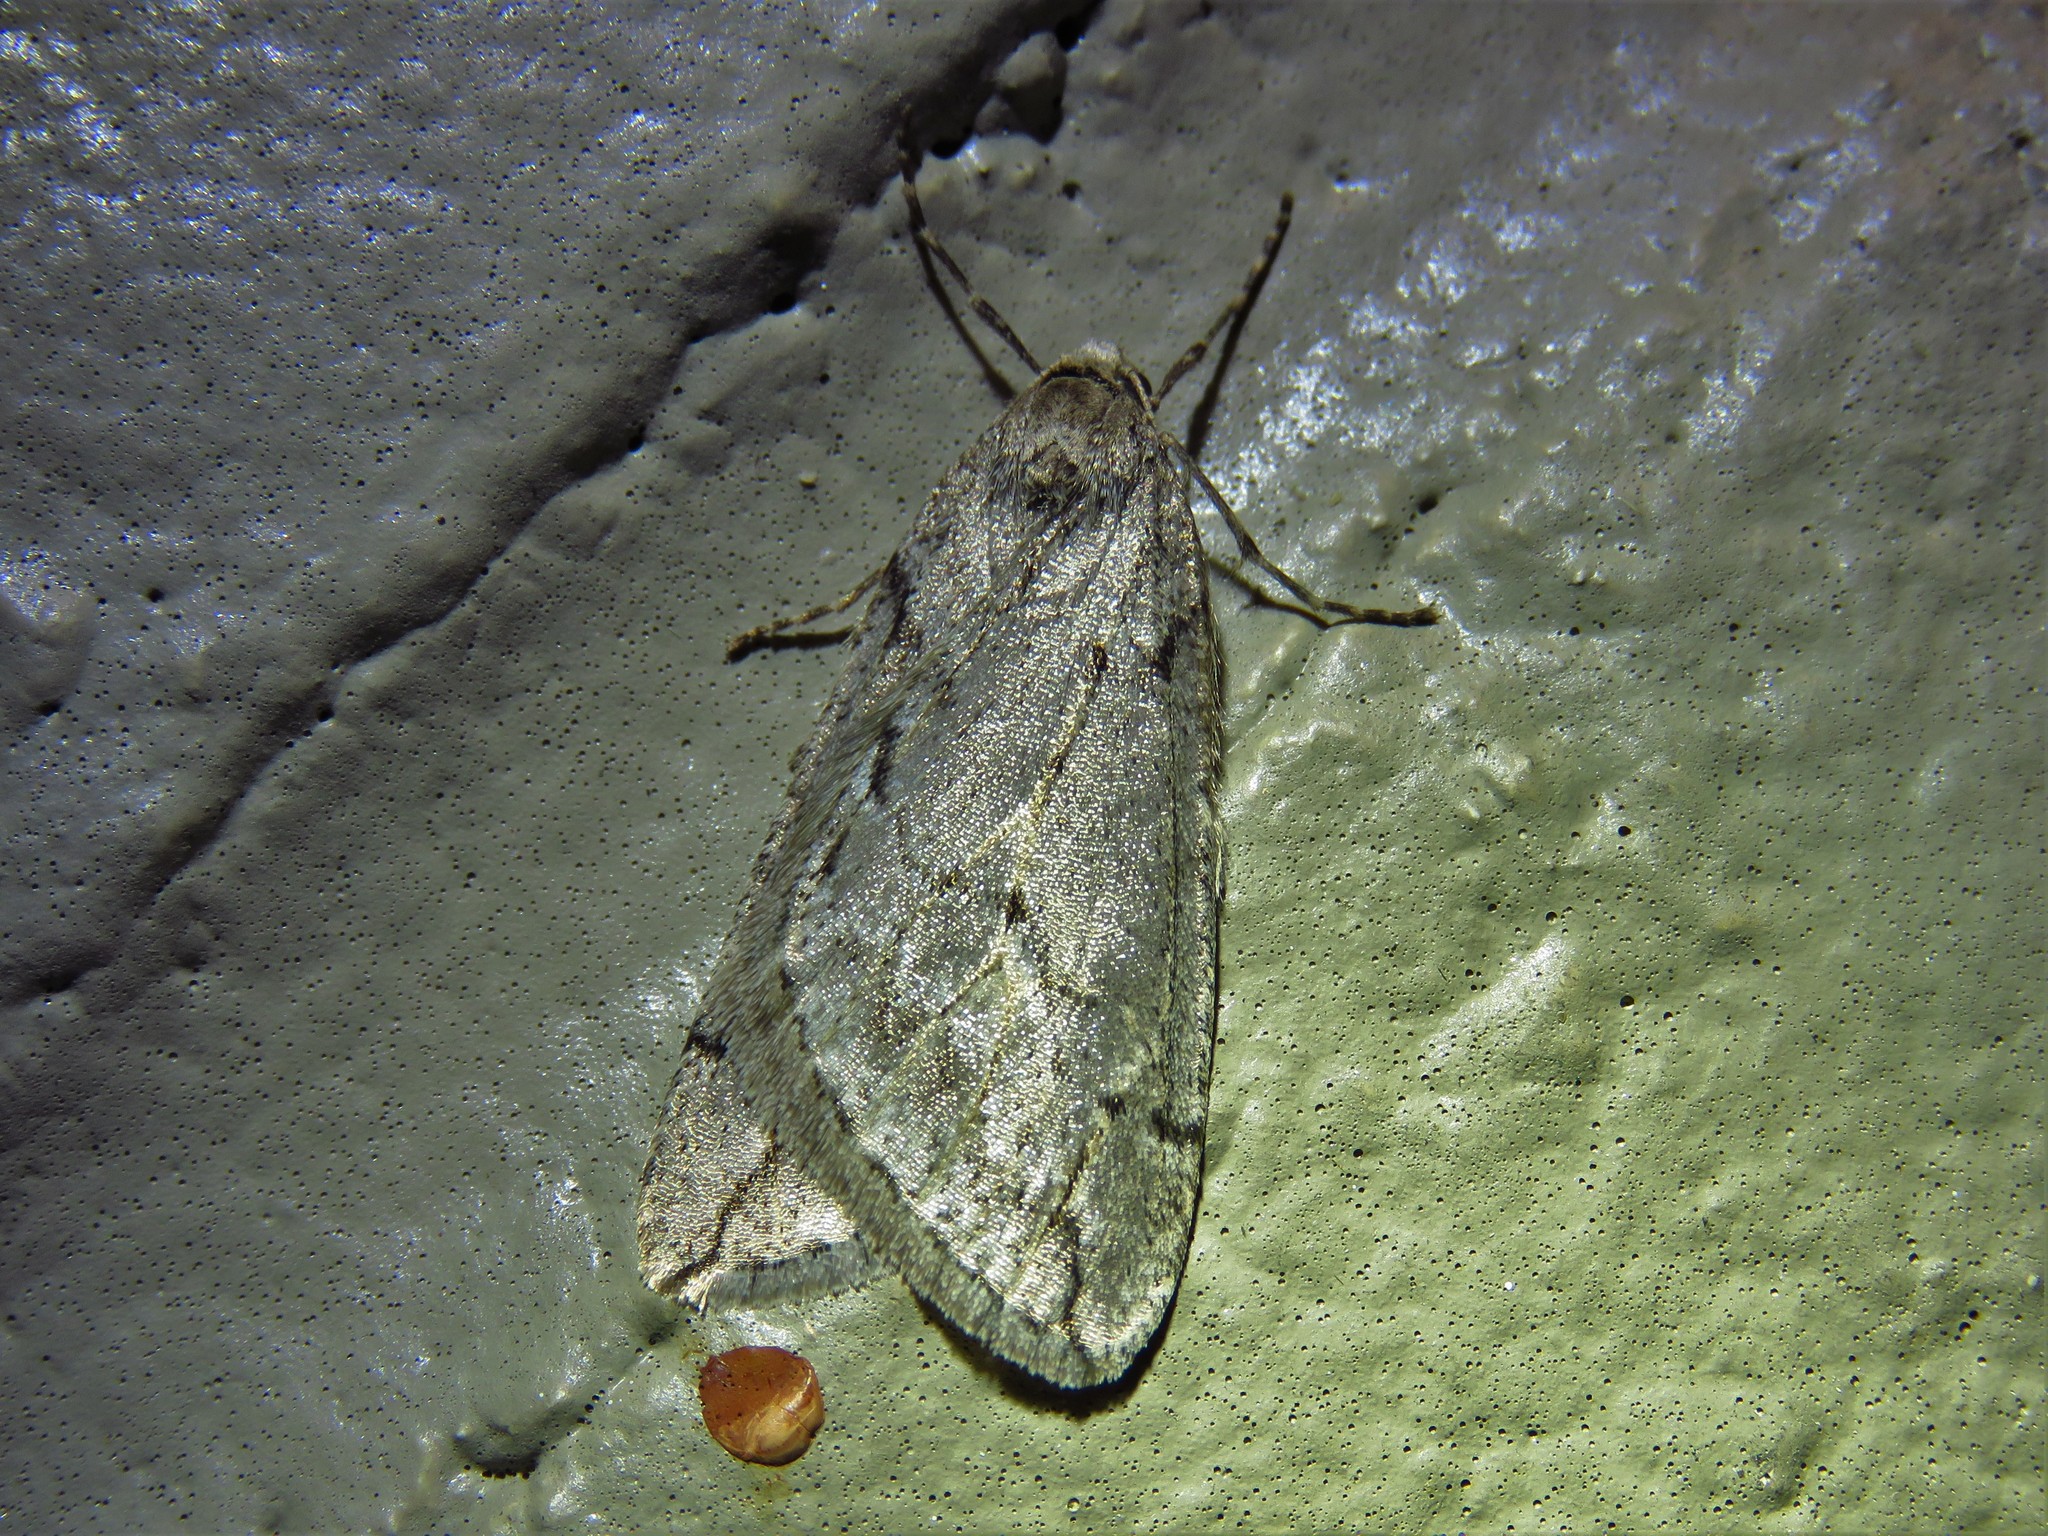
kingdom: Animalia
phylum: Arthropoda
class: Insecta
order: Lepidoptera
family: Geometridae
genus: Paleacrita
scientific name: Paleacrita vernata
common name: Spring cankerworm
